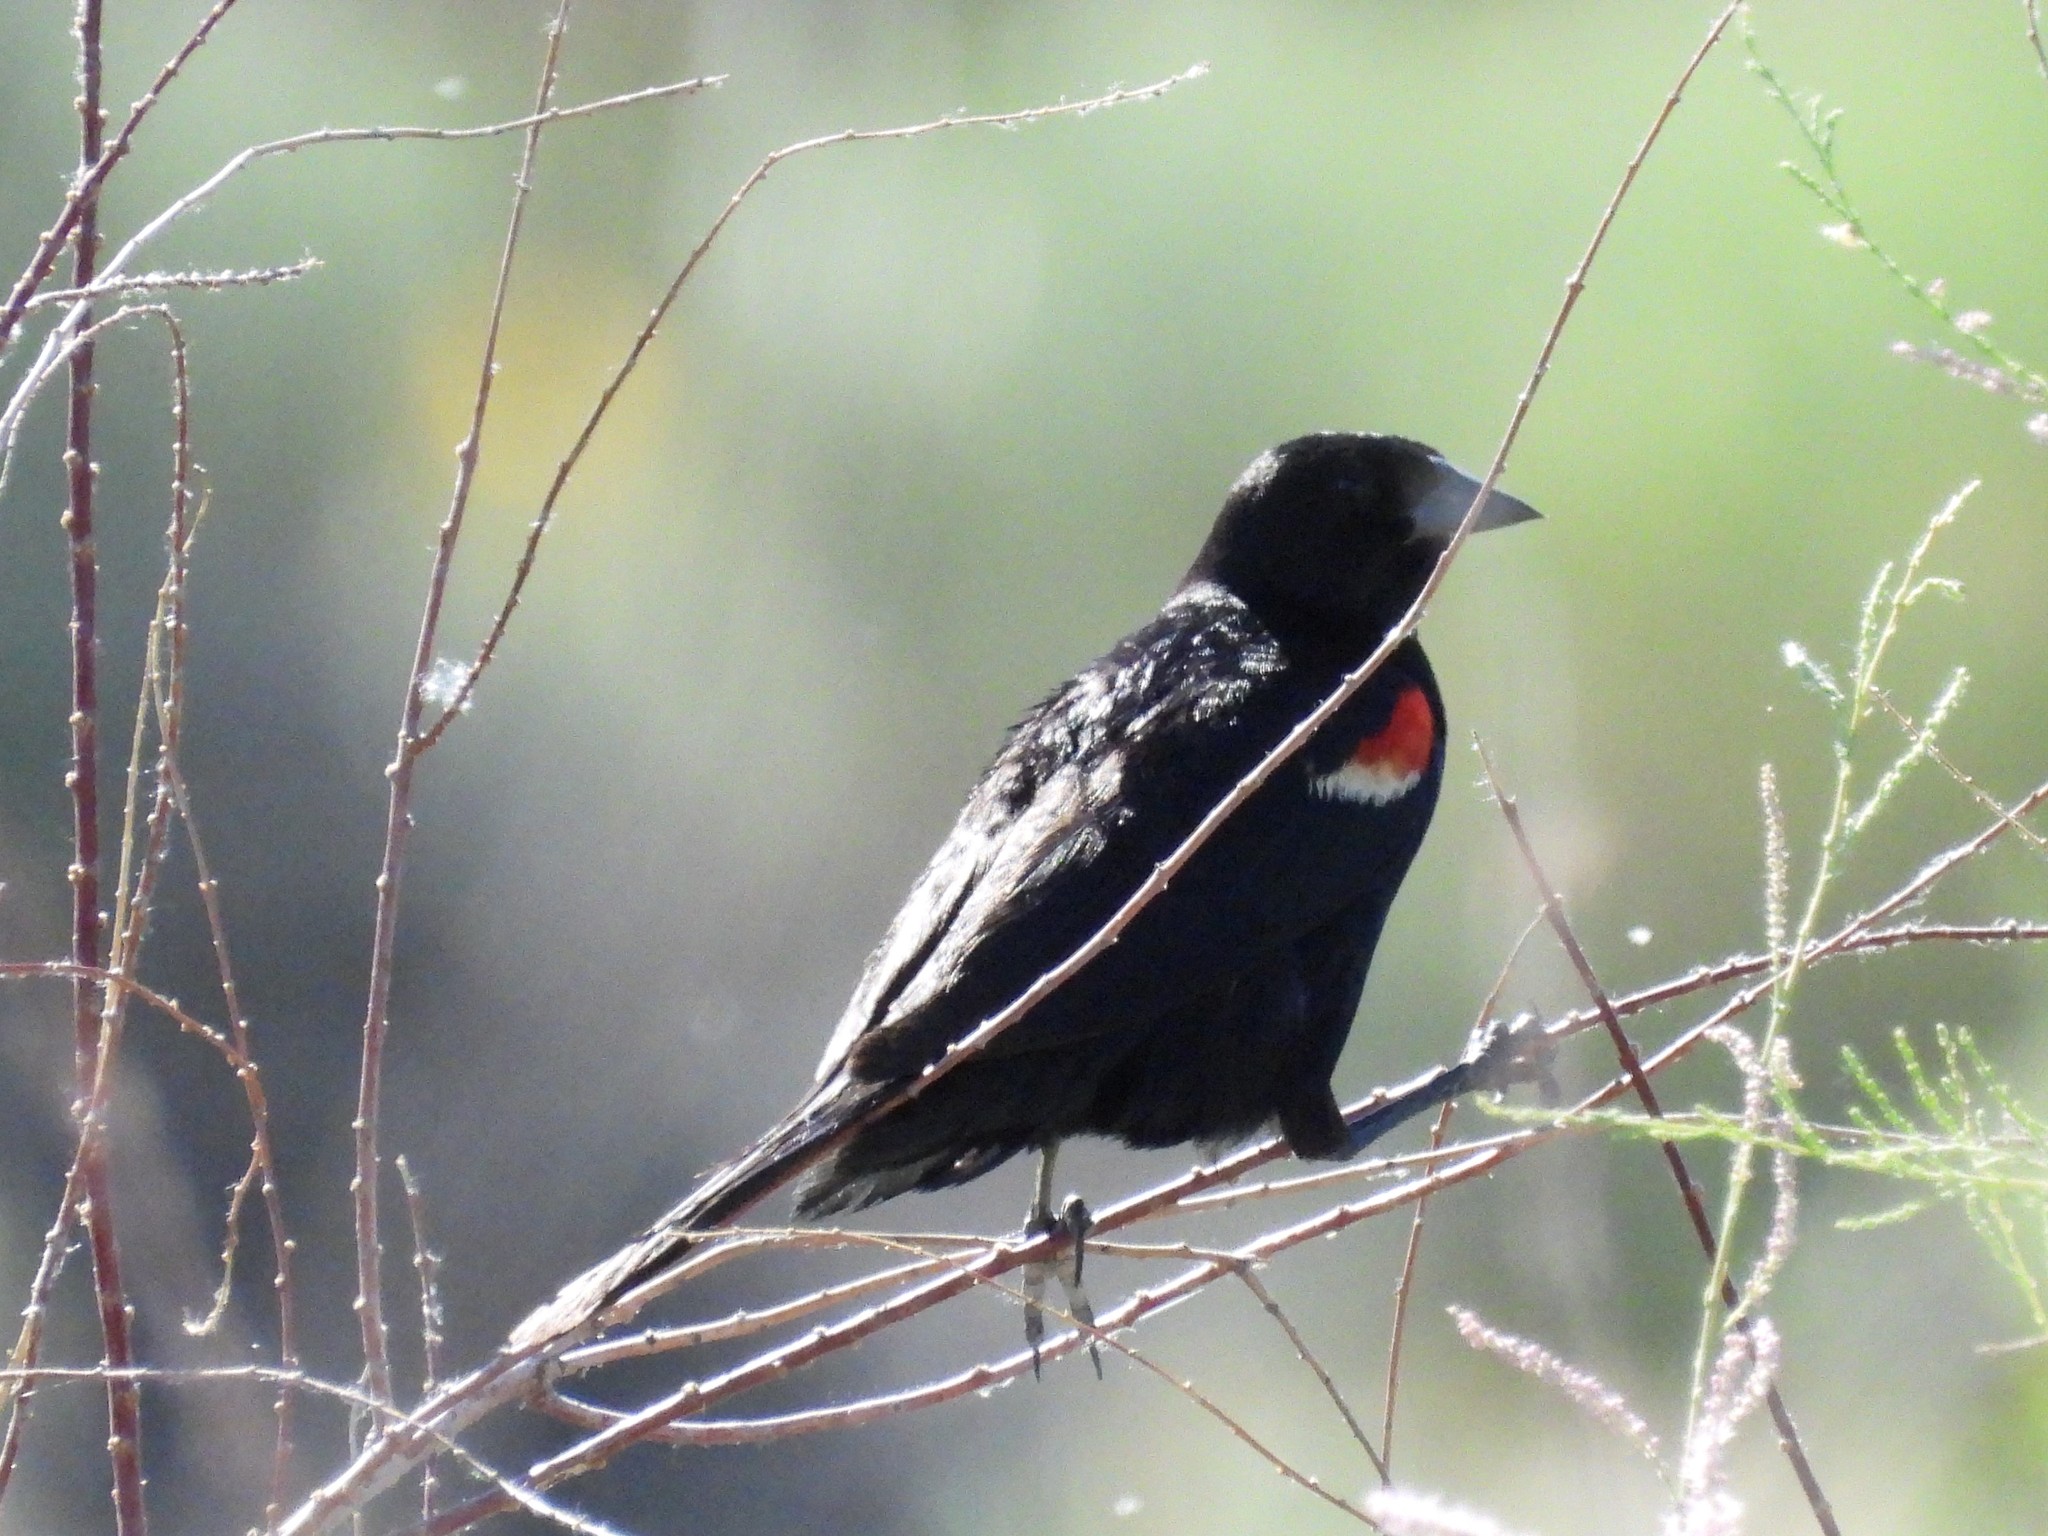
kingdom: Animalia
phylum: Chordata
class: Aves
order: Passeriformes
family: Icteridae
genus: Agelaius
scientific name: Agelaius phoeniceus
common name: Red-winged blackbird
